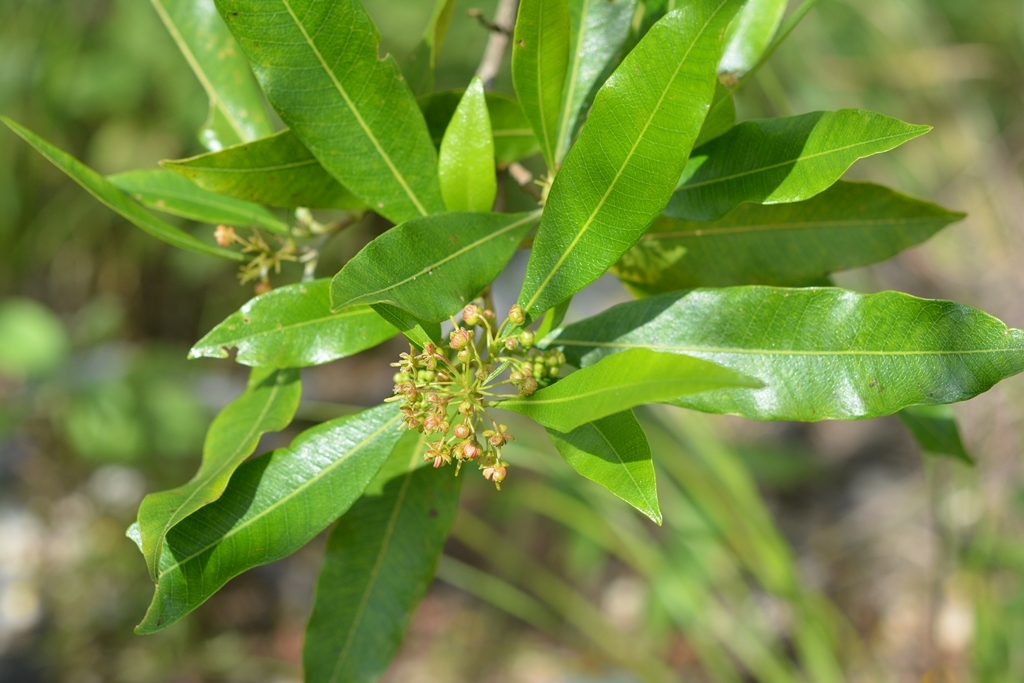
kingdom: Plantae
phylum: Tracheophyta
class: Magnoliopsida
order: Sapindales
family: Sapindaceae
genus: Dodonaea
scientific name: Dodonaea viscosa
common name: Hopbush
